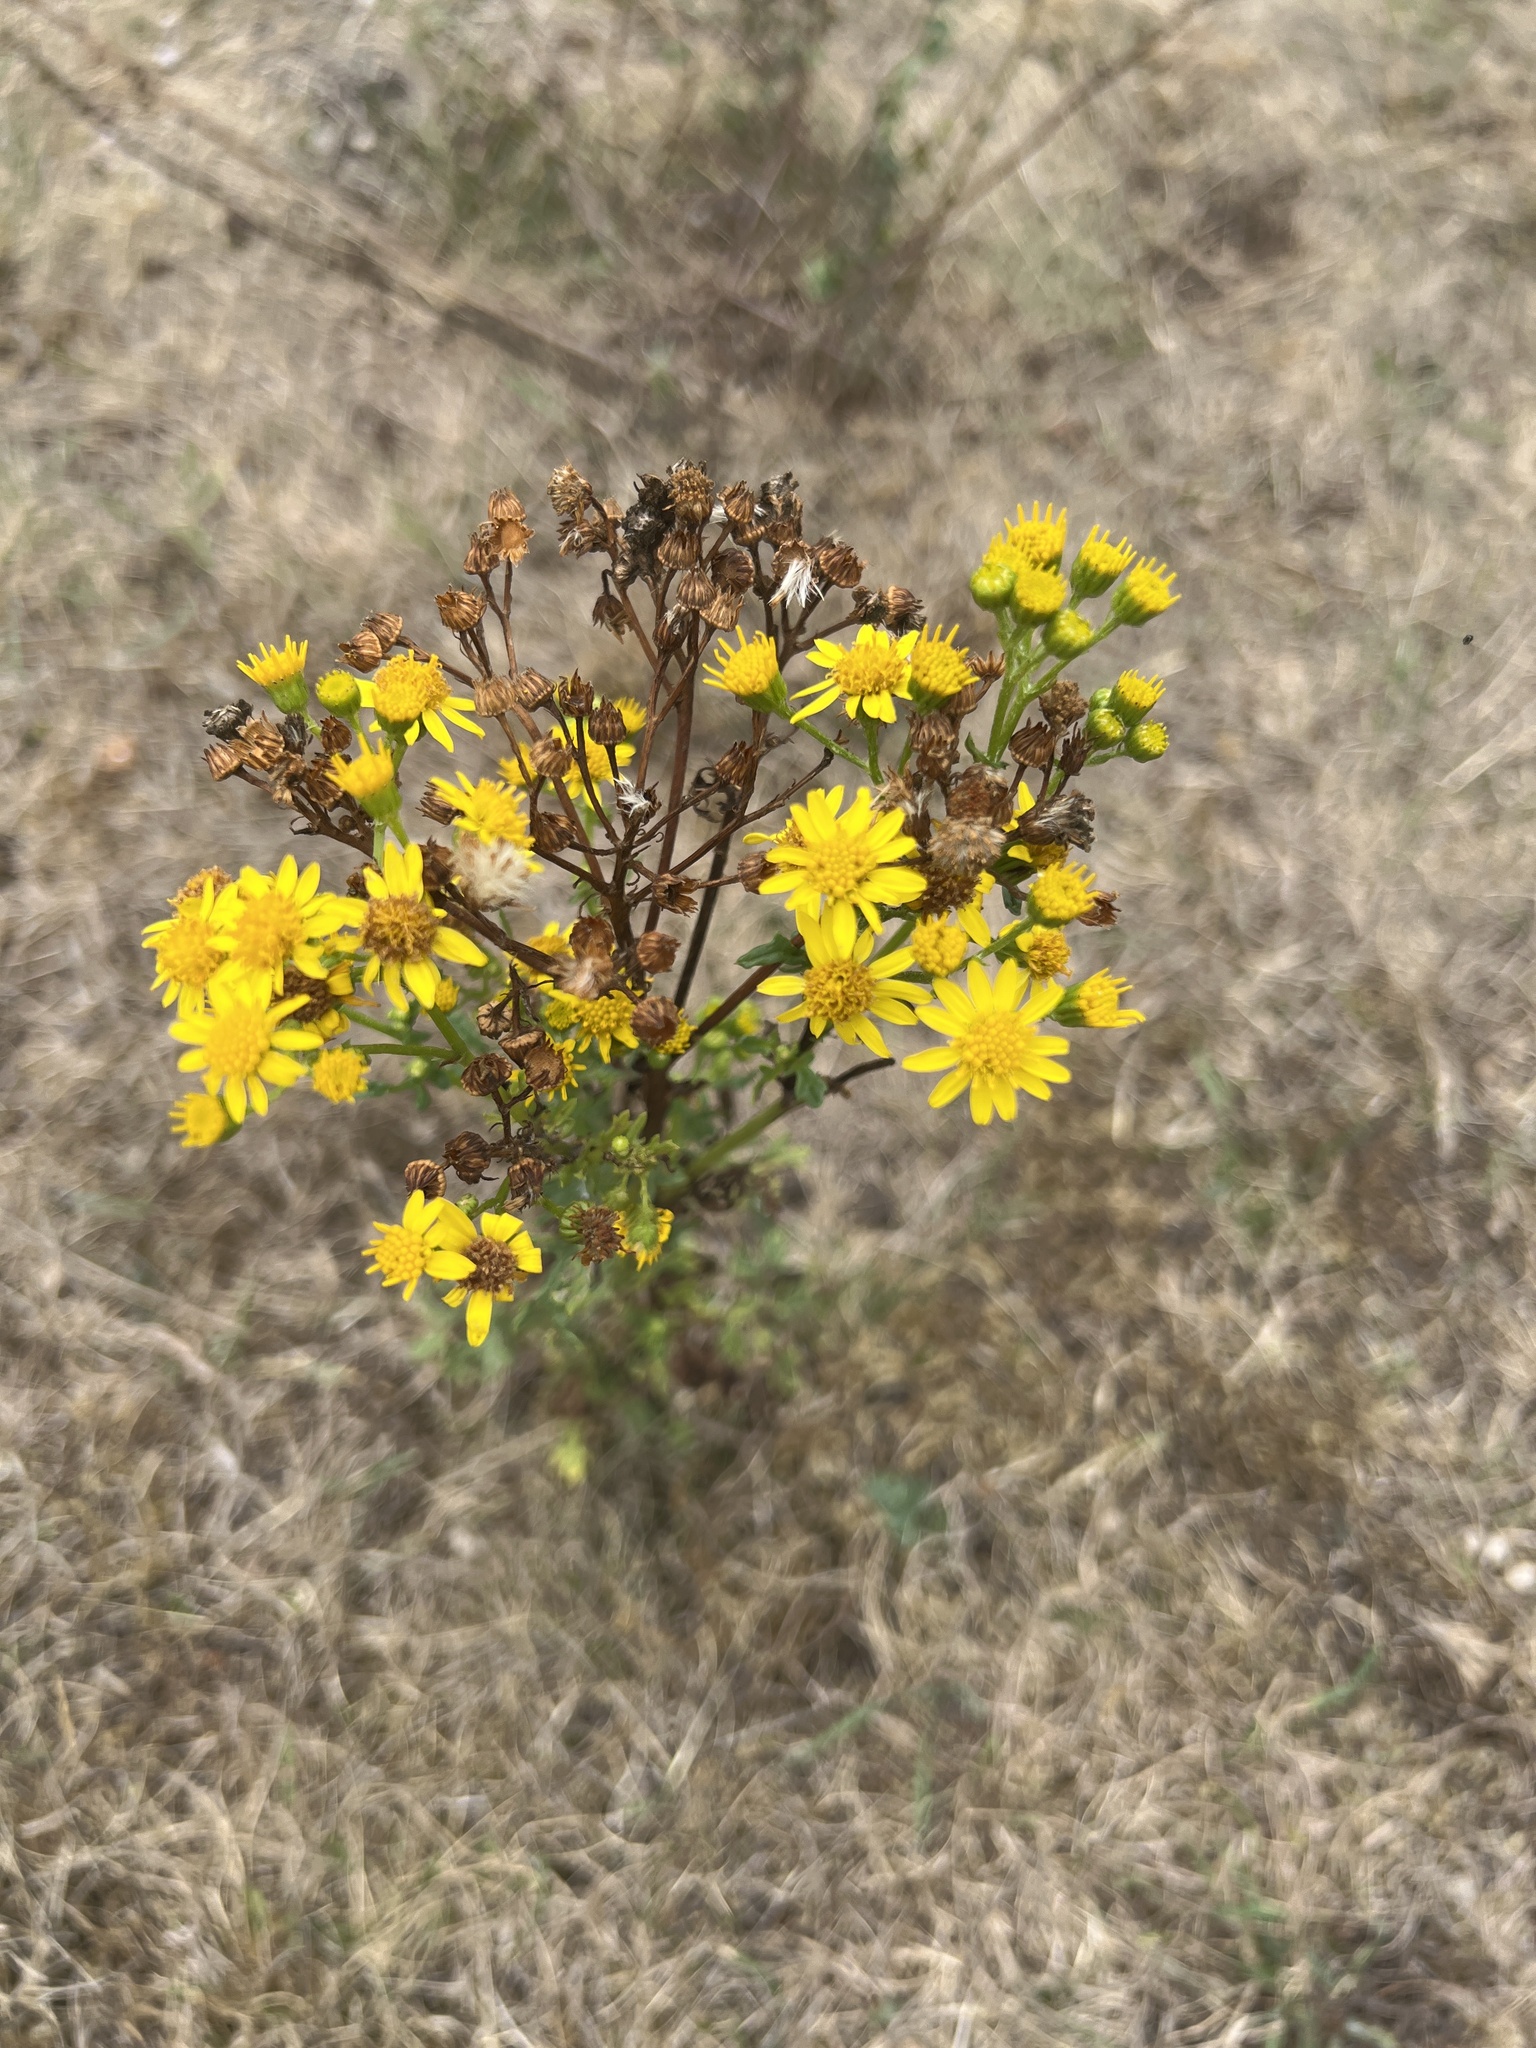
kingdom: Plantae
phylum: Tracheophyta
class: Magnoliopsida
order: Asterales
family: Asteraceae
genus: Jacobaea
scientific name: Jacobaea vulgaris
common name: Stinking willie
